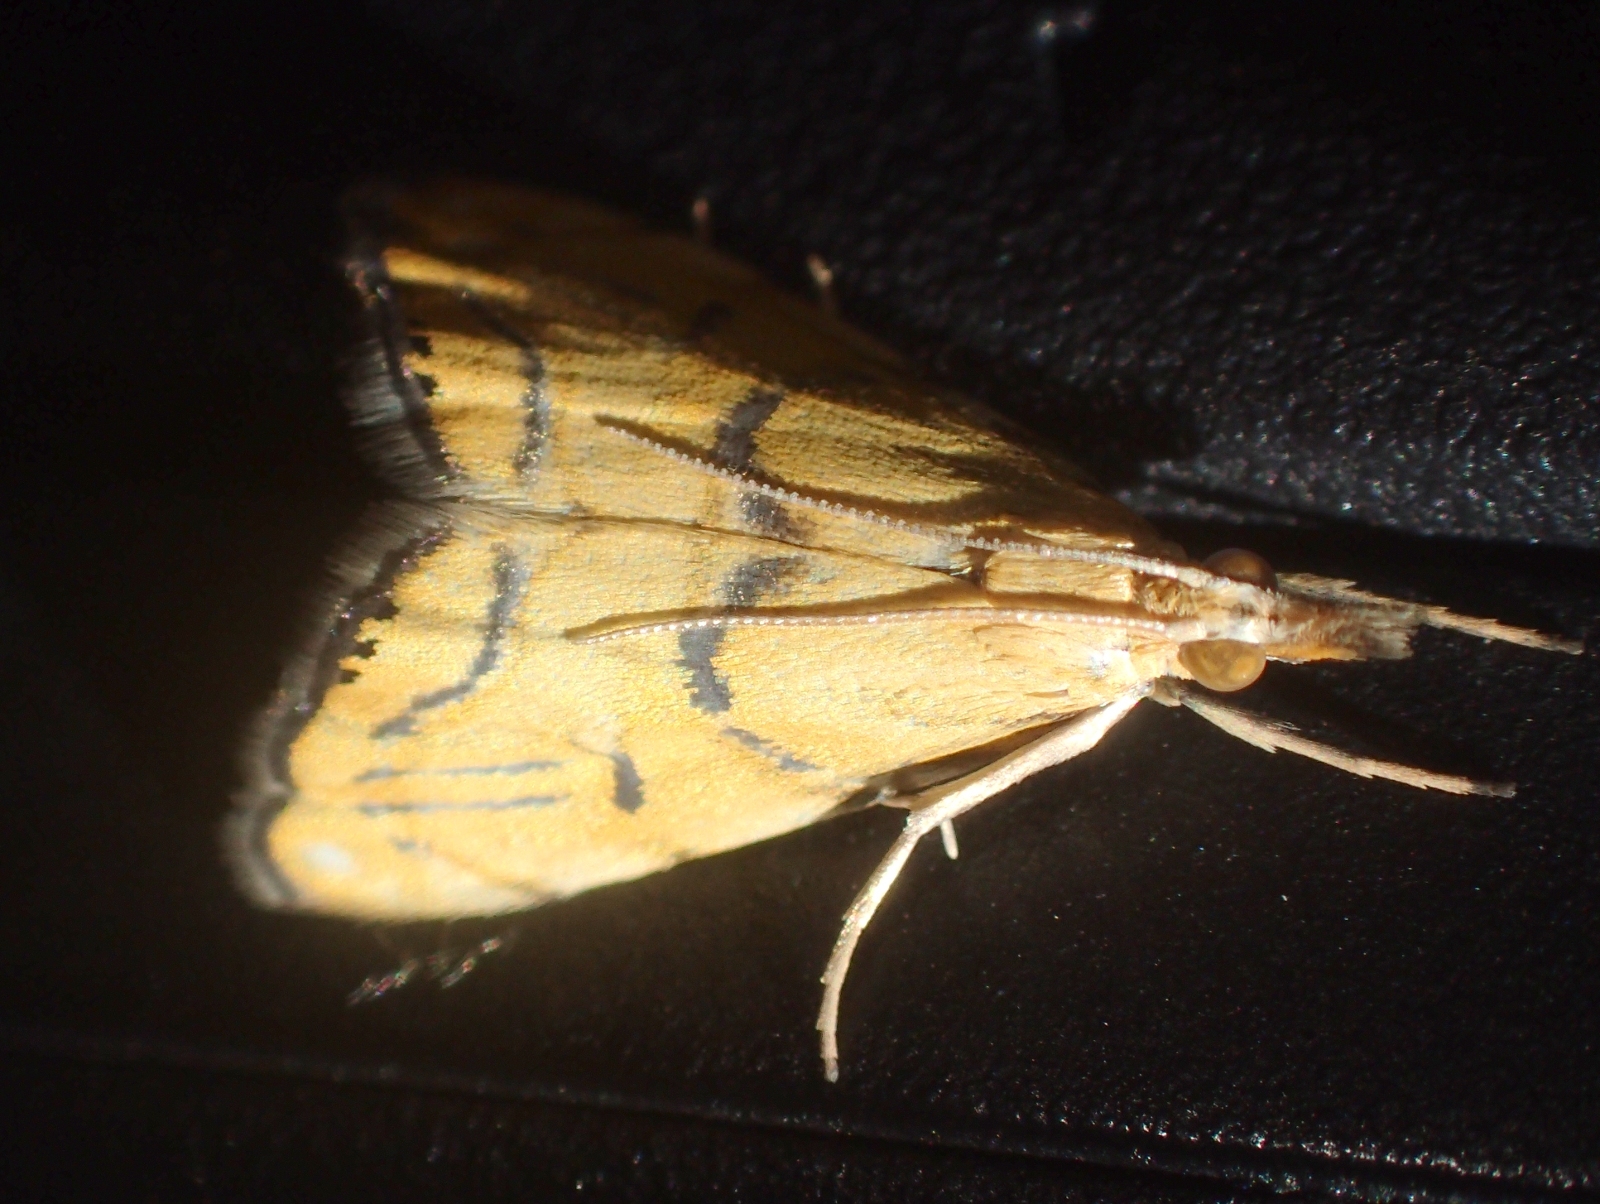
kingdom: Animalia
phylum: Arthropoda
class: Insecta
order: Lepidoptera
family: Crambidae
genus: Glaucocharis
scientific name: Glaucocharis auriscriptella
